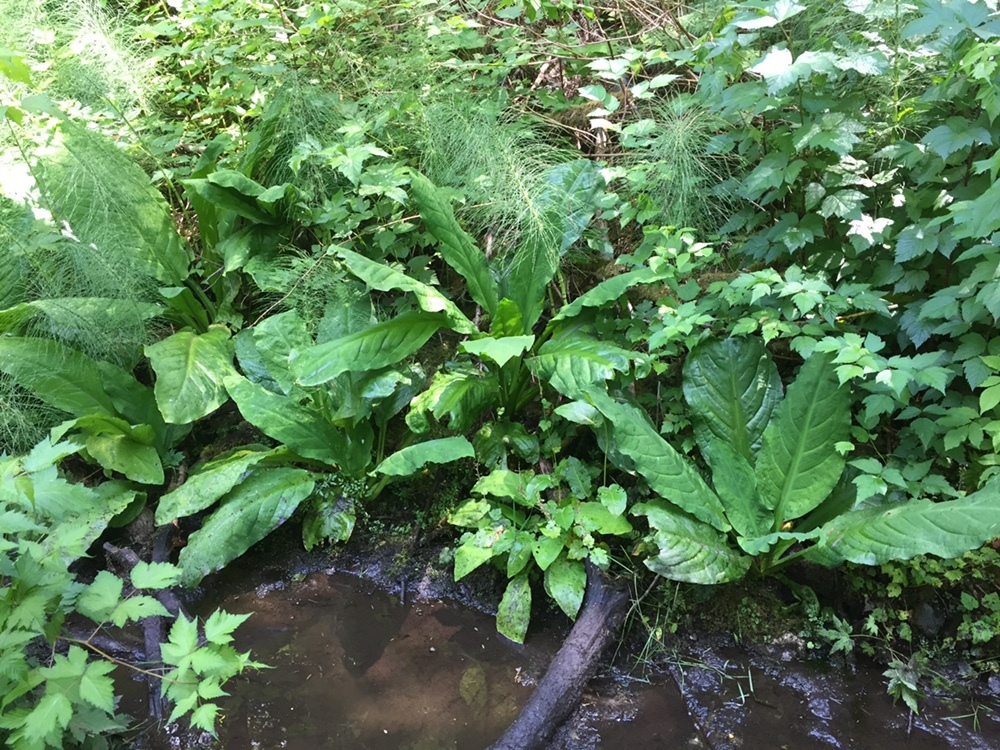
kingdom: Plantae
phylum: Tracheophyta
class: Liliopsida
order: Alismatales
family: Araceae
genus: Lysichiton
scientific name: Lysichiton americanus
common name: American skunk cabbage
